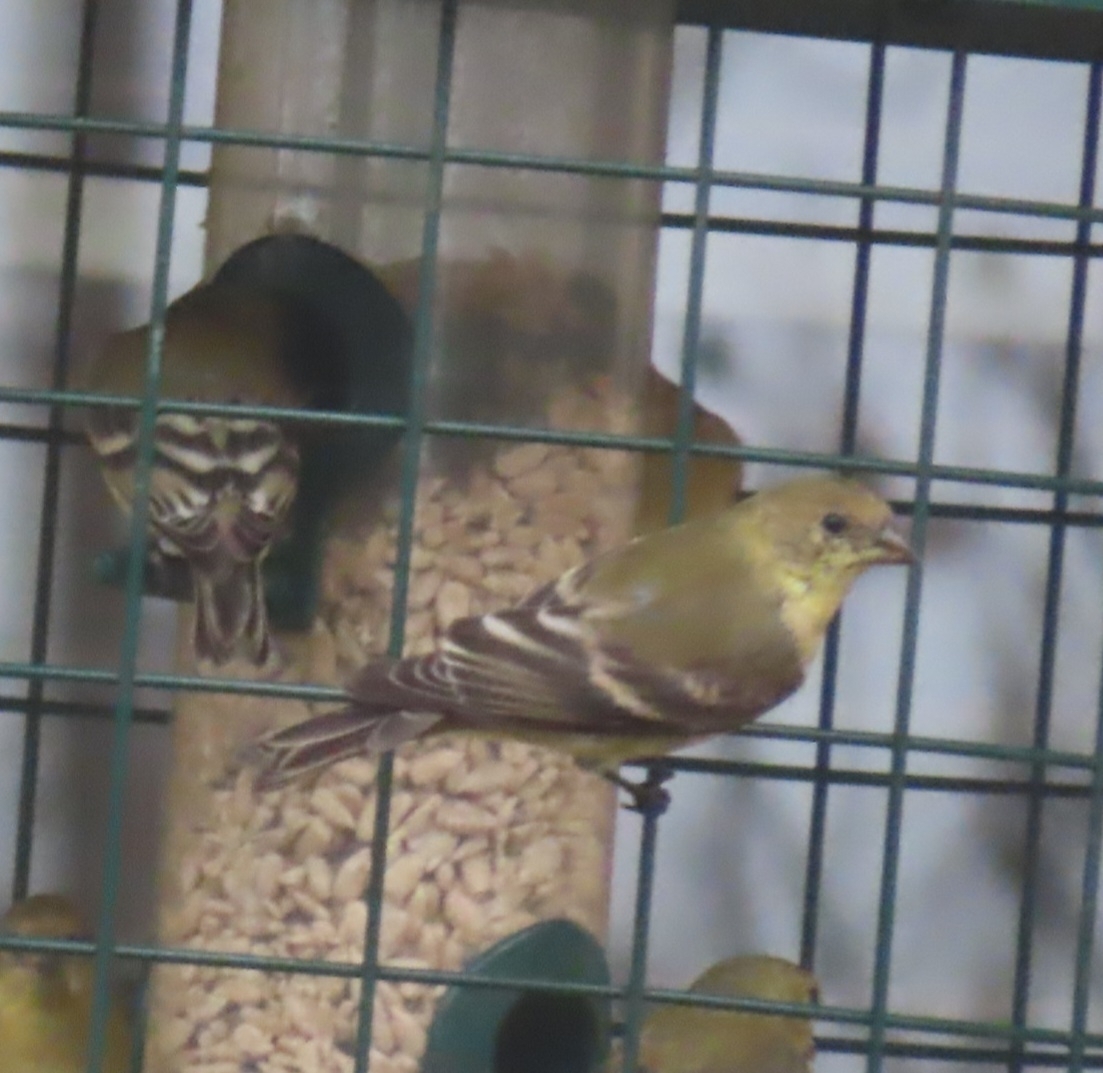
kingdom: Animalia
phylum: Chordata
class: Aves
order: Passeriformes
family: Fringillidae
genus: Spinus
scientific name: Spinus psaltria
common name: Lesser goldfinch
